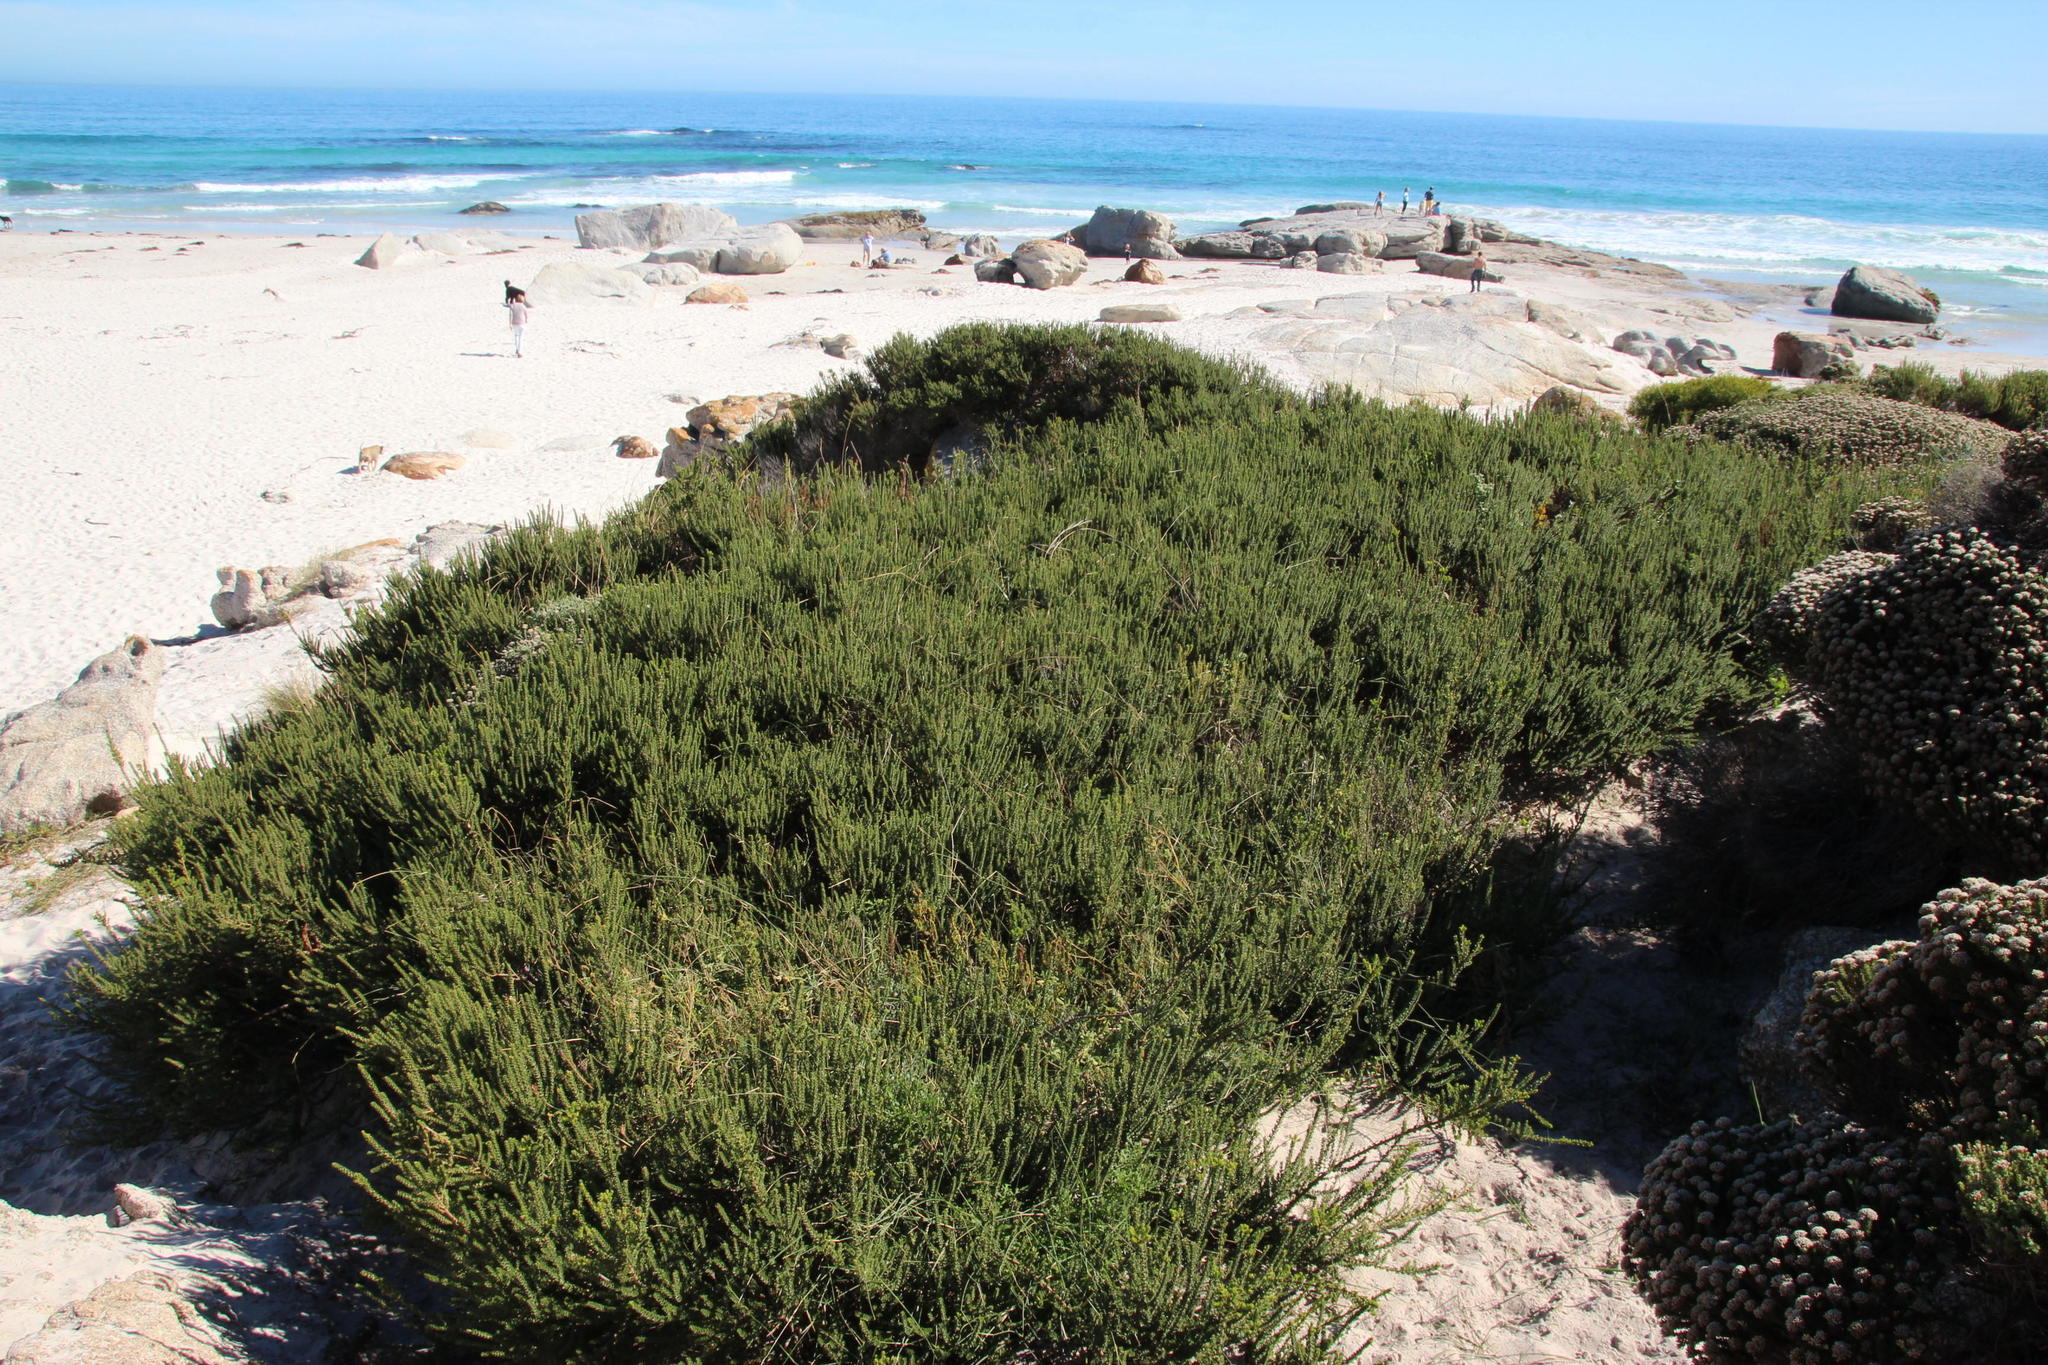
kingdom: Plantae
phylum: Tracheophyta
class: Magnoliopsida
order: Fagales
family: Myricaceae
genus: Morella
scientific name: Morella cordifolia
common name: Waxberry
